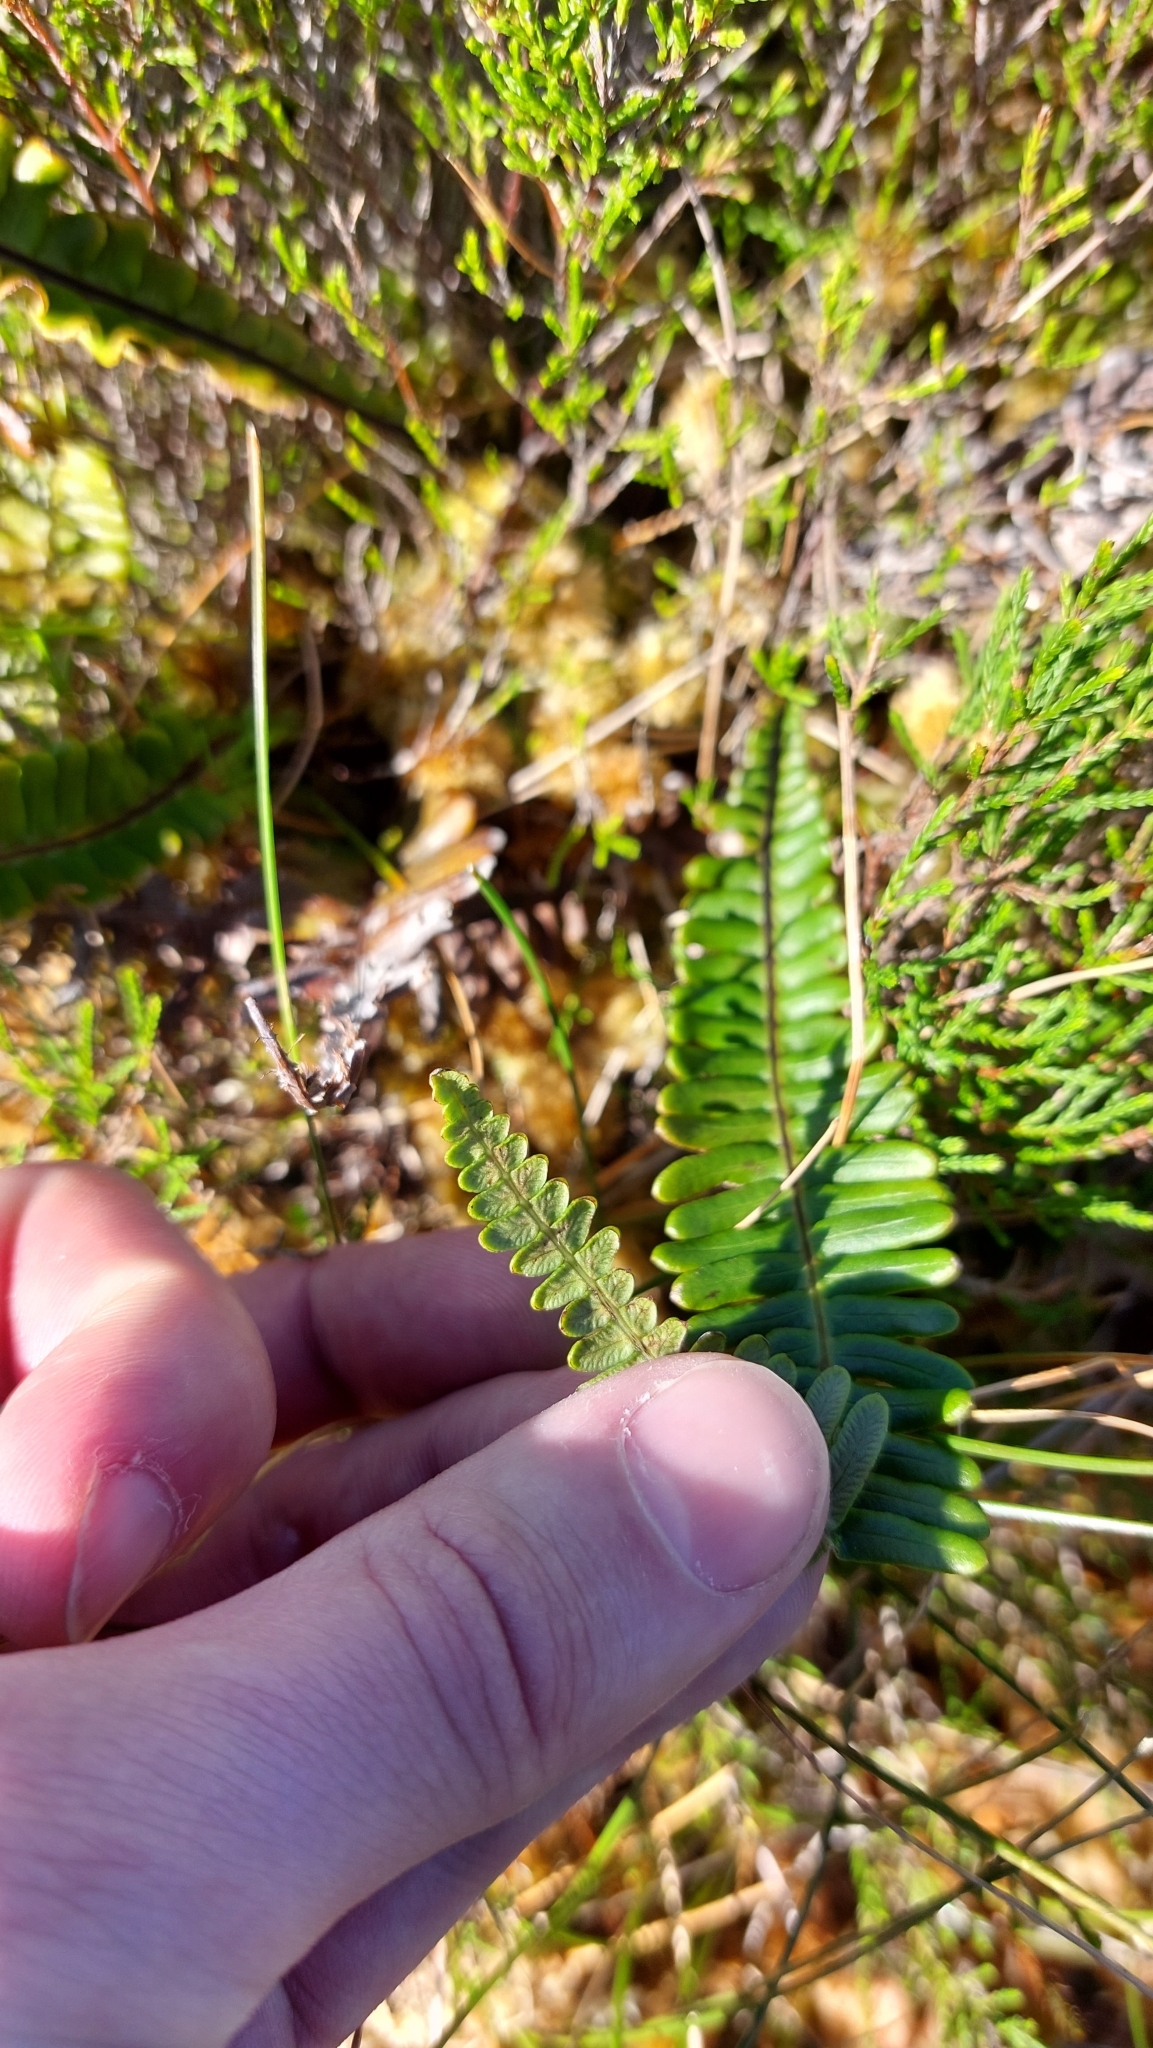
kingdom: Plantae
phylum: Tracheophyta
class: Polypodiopsida
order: Polypodiales
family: Blechnaceae
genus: Struthiopteris
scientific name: Struthiopteris spicant
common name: Deer fern
